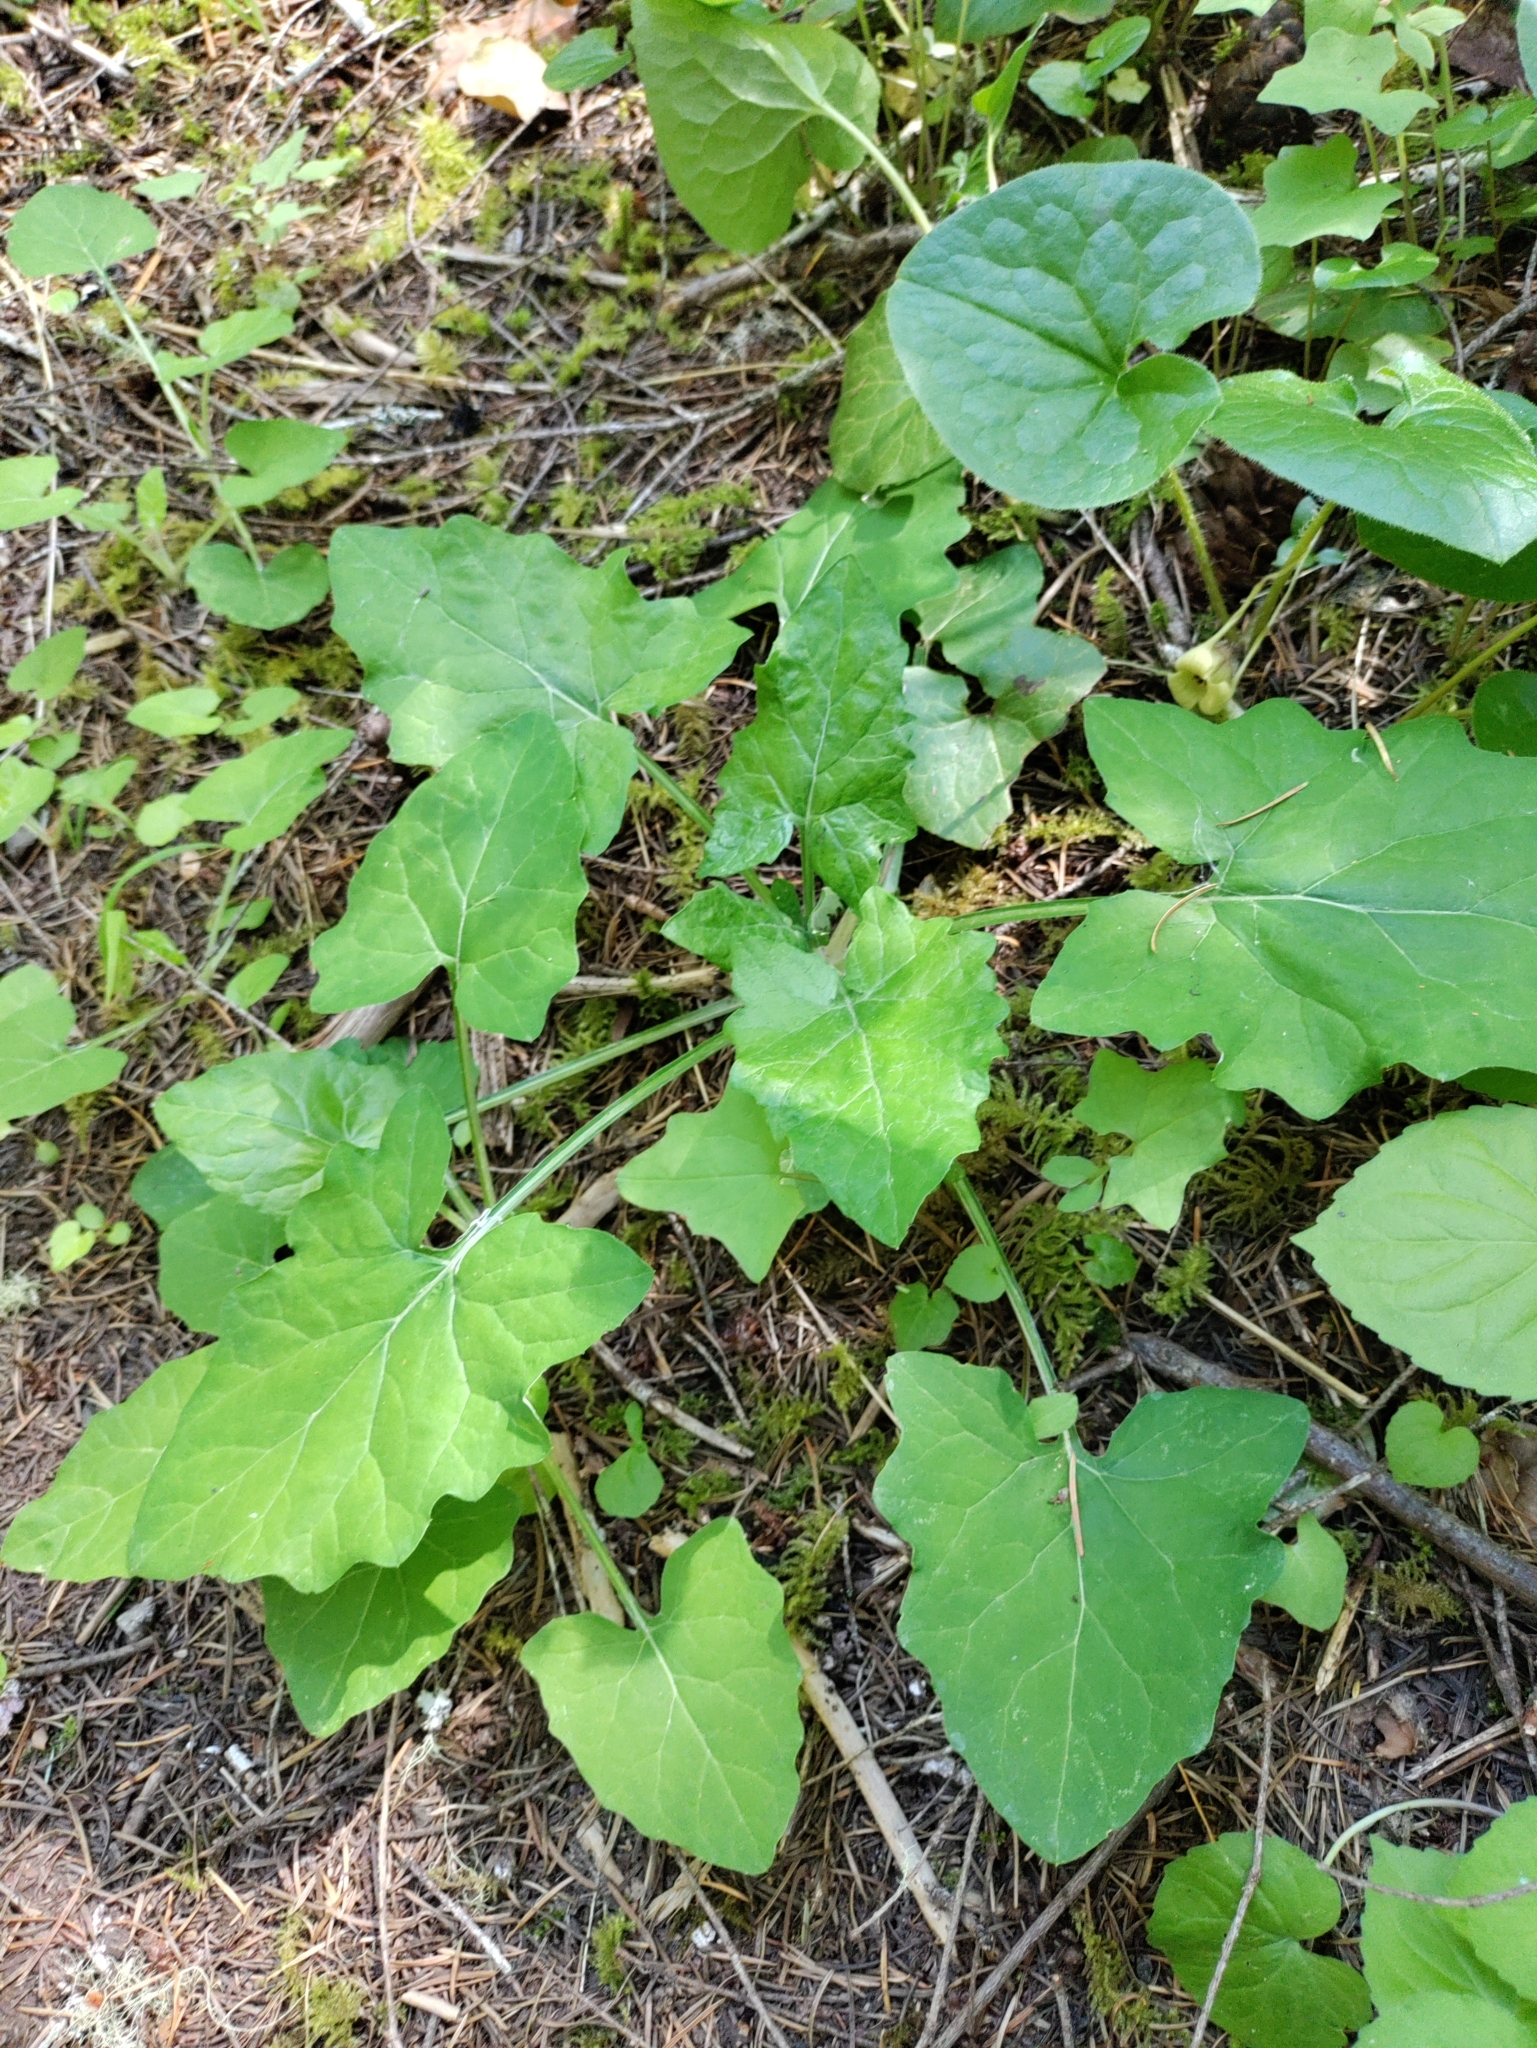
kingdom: Plantae
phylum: Tracheophyta
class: Magnoliopsida
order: Asterales
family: Asteraceae
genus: Adenocaulon
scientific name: Adenocaulon bicolor
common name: Trailplant
